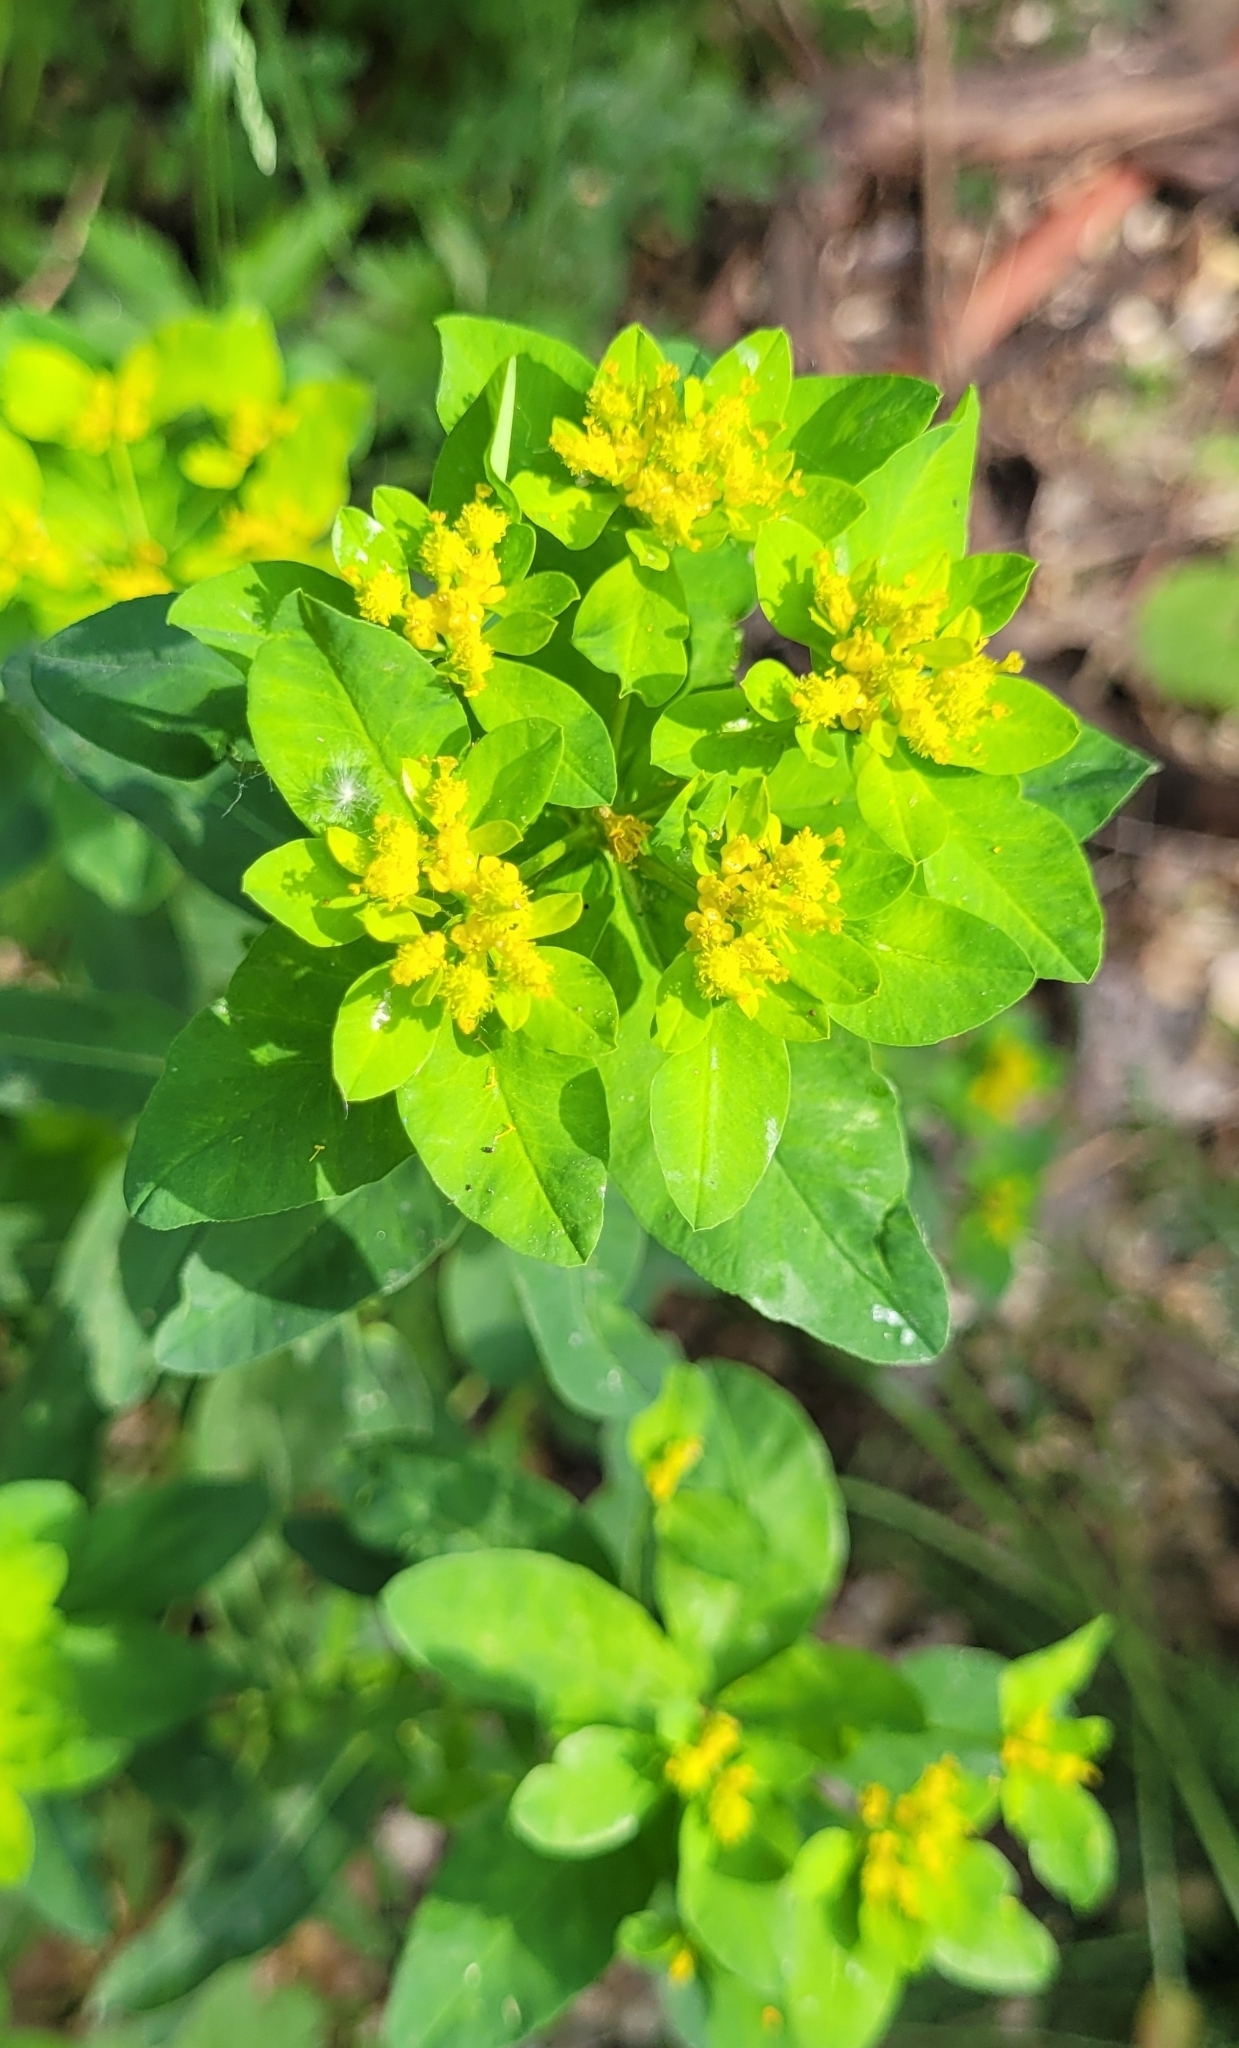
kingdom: Plantae
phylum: Tracheophyta
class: Magnoliopsida
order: Malpighiales
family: Euphorbiaceae
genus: Euphorbia
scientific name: Euphorbia epithymoides
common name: Cushion spurge
